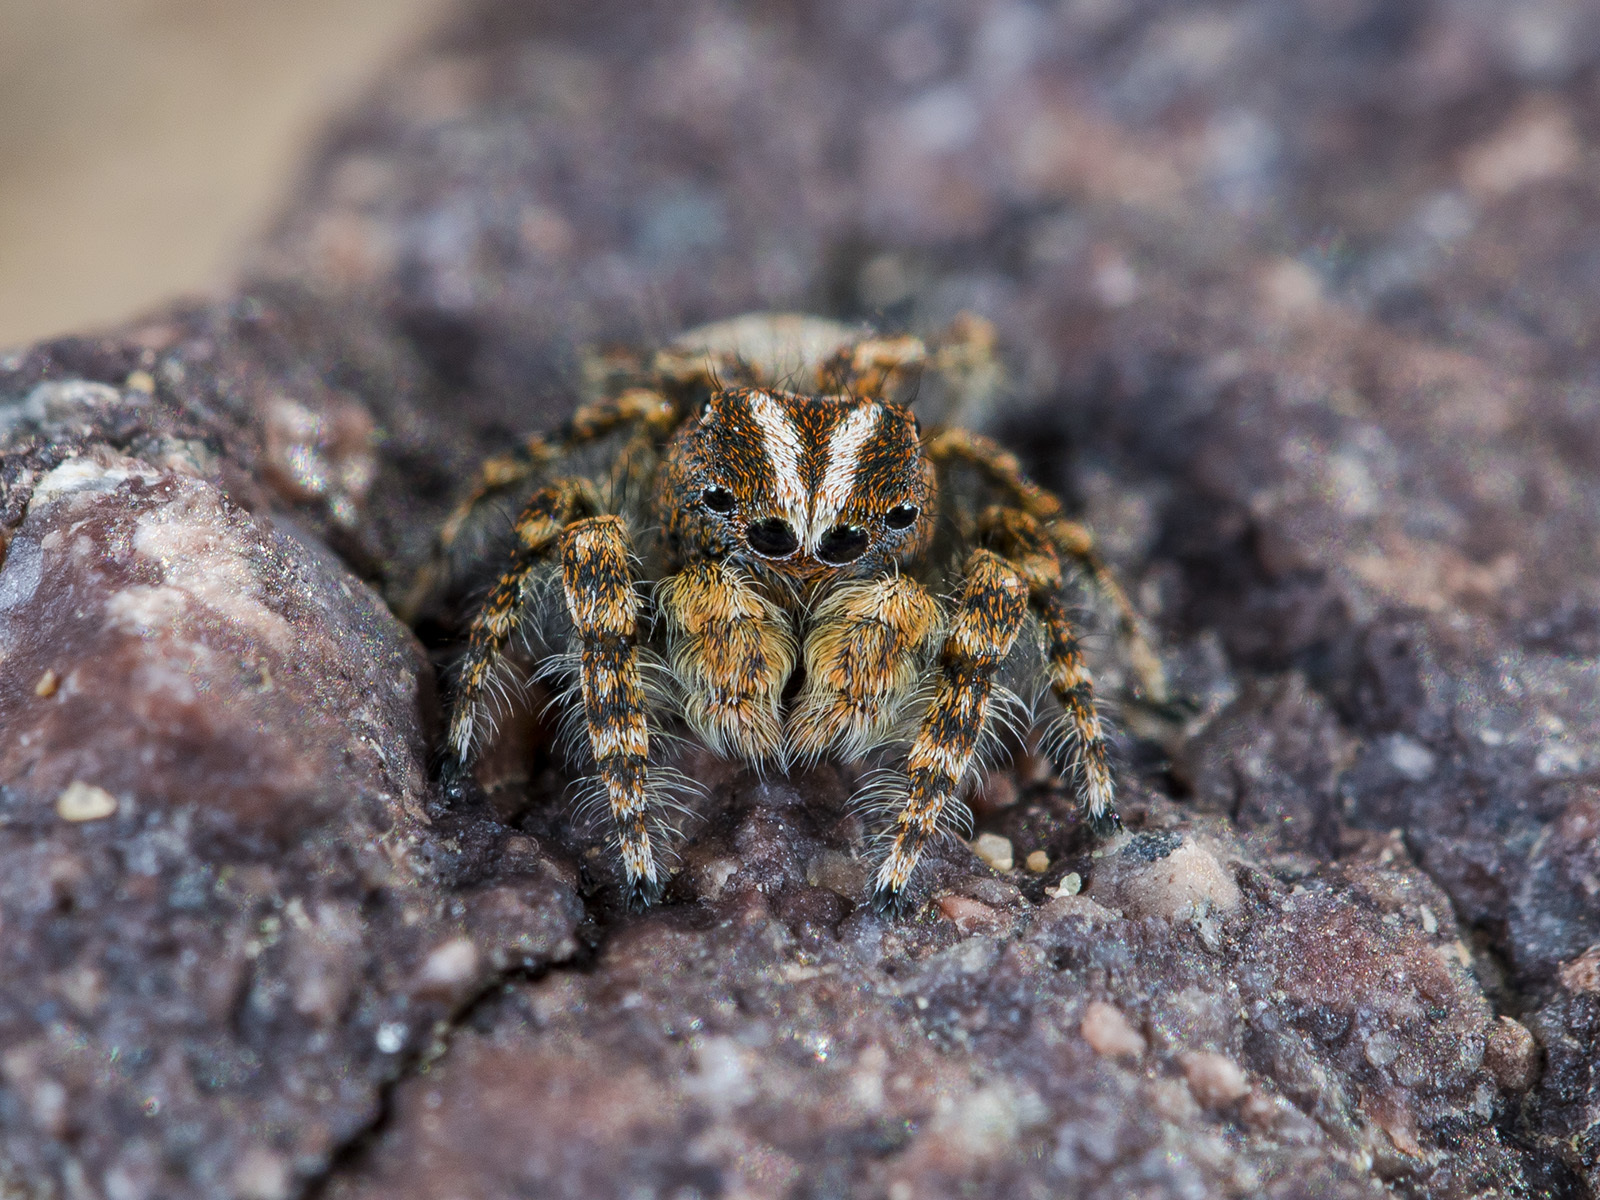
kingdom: Animalia
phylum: Arthropoda
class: Arachnida
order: Araneae
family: Salticidae
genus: Yllenus
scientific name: Yllenus zyuzini
